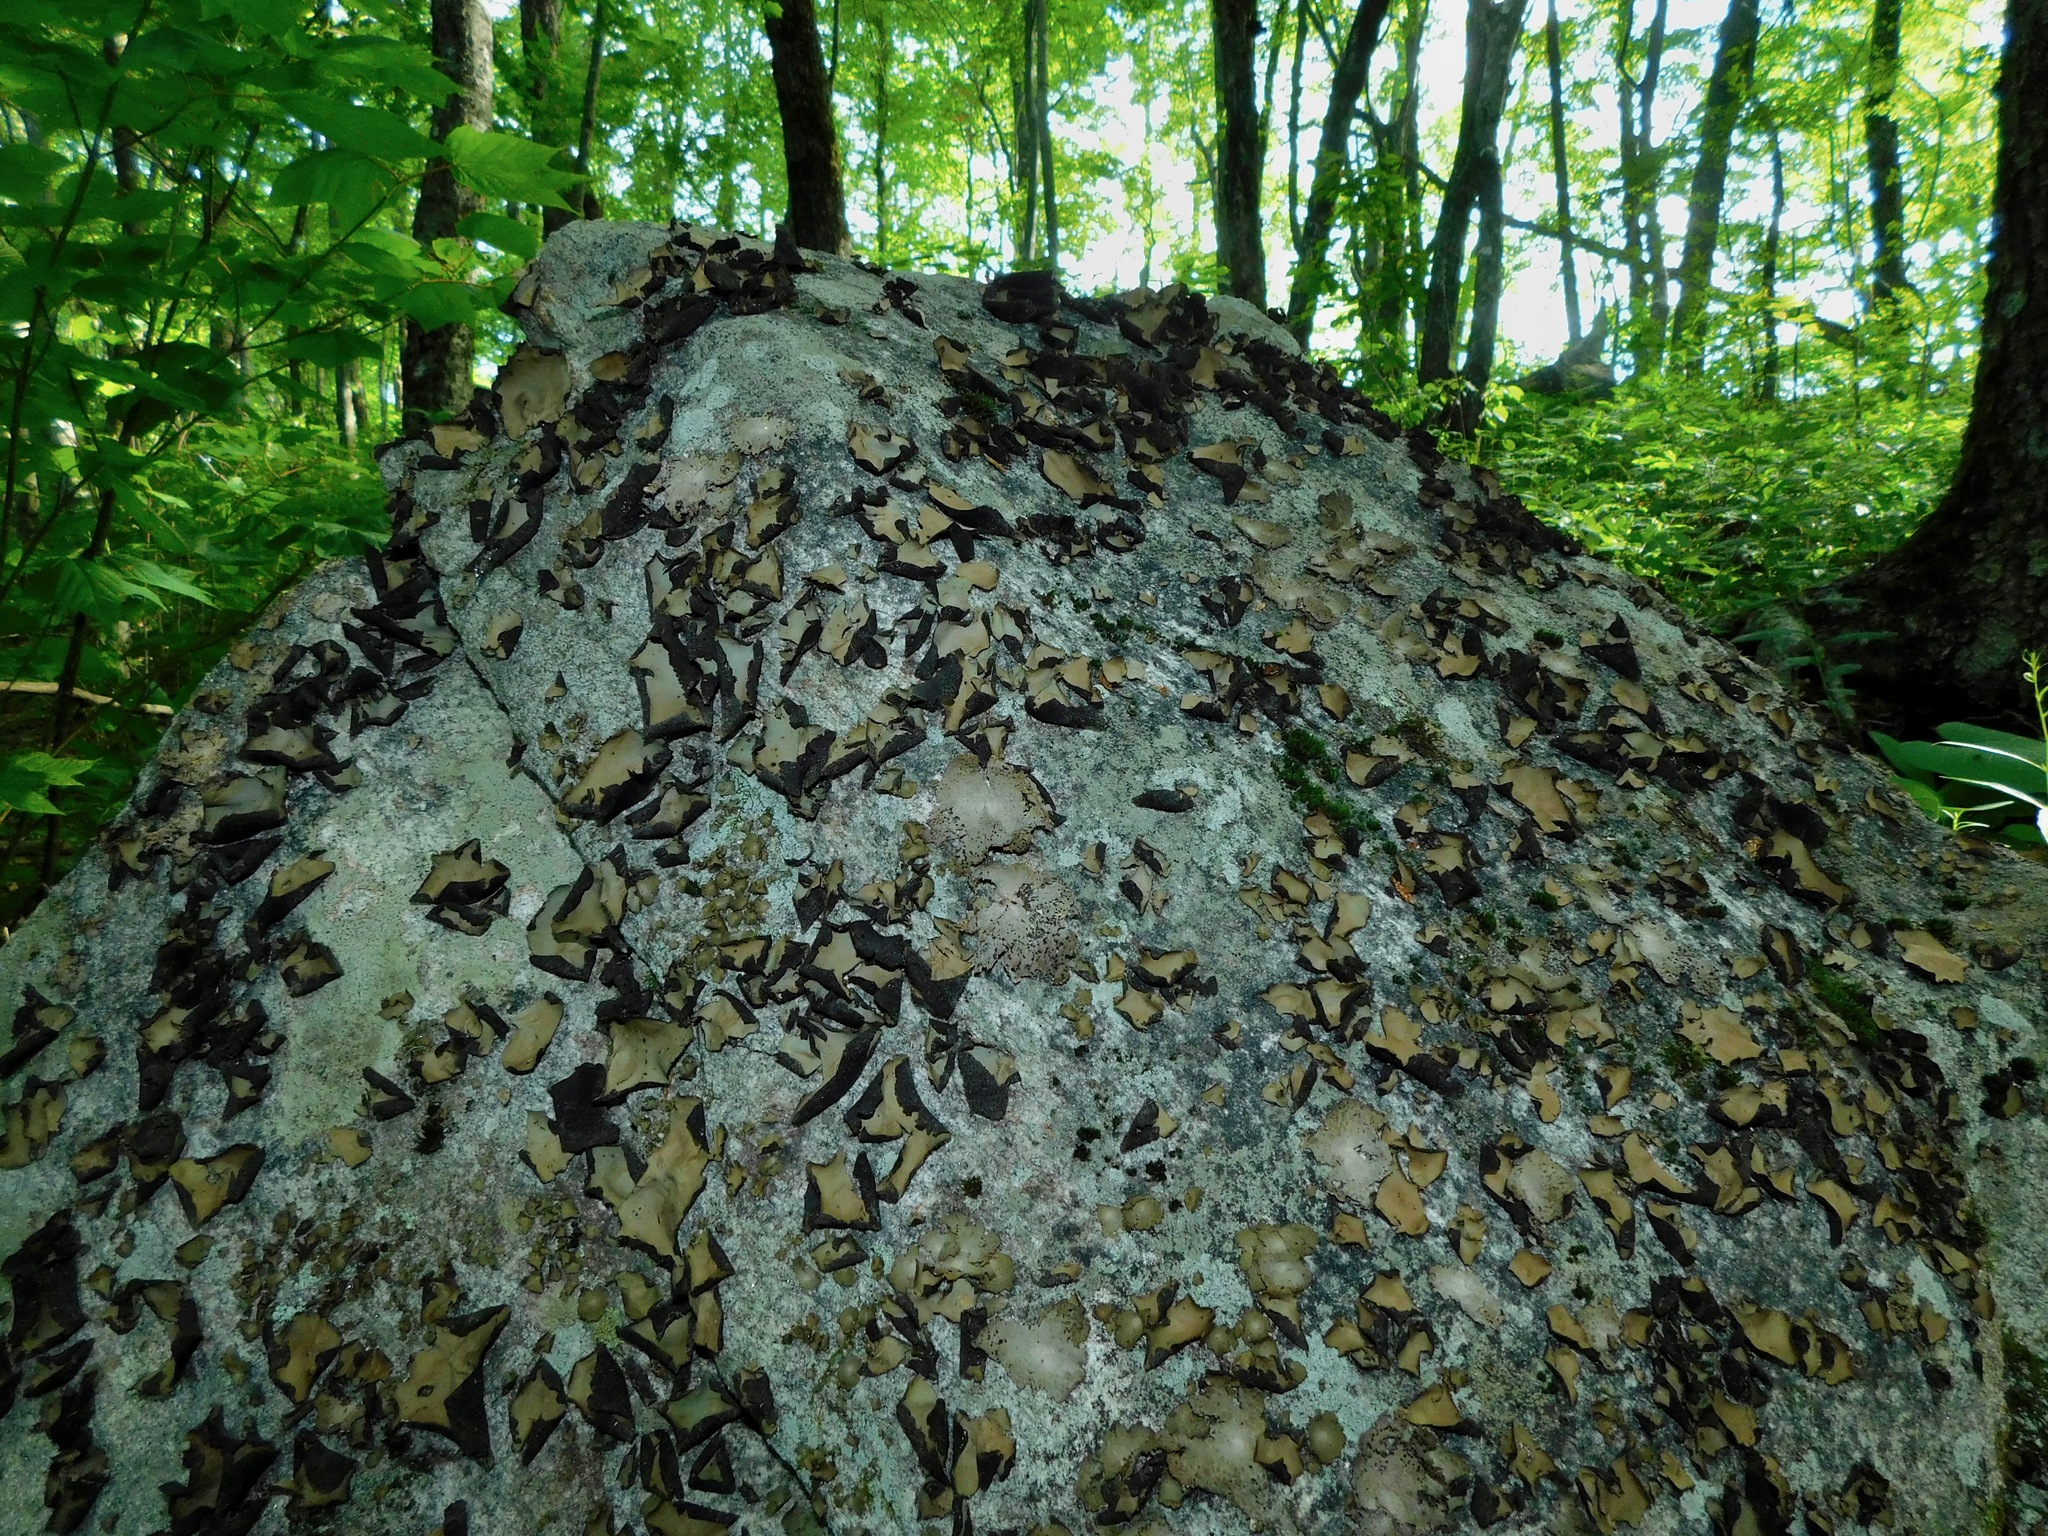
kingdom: Fungi
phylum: Ascomycota
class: Lecanoromycetes
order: Umbilicariales
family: Umbilicariaceae
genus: Lasallia
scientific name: Lasallia papulosa
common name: Common toadskin lichen
